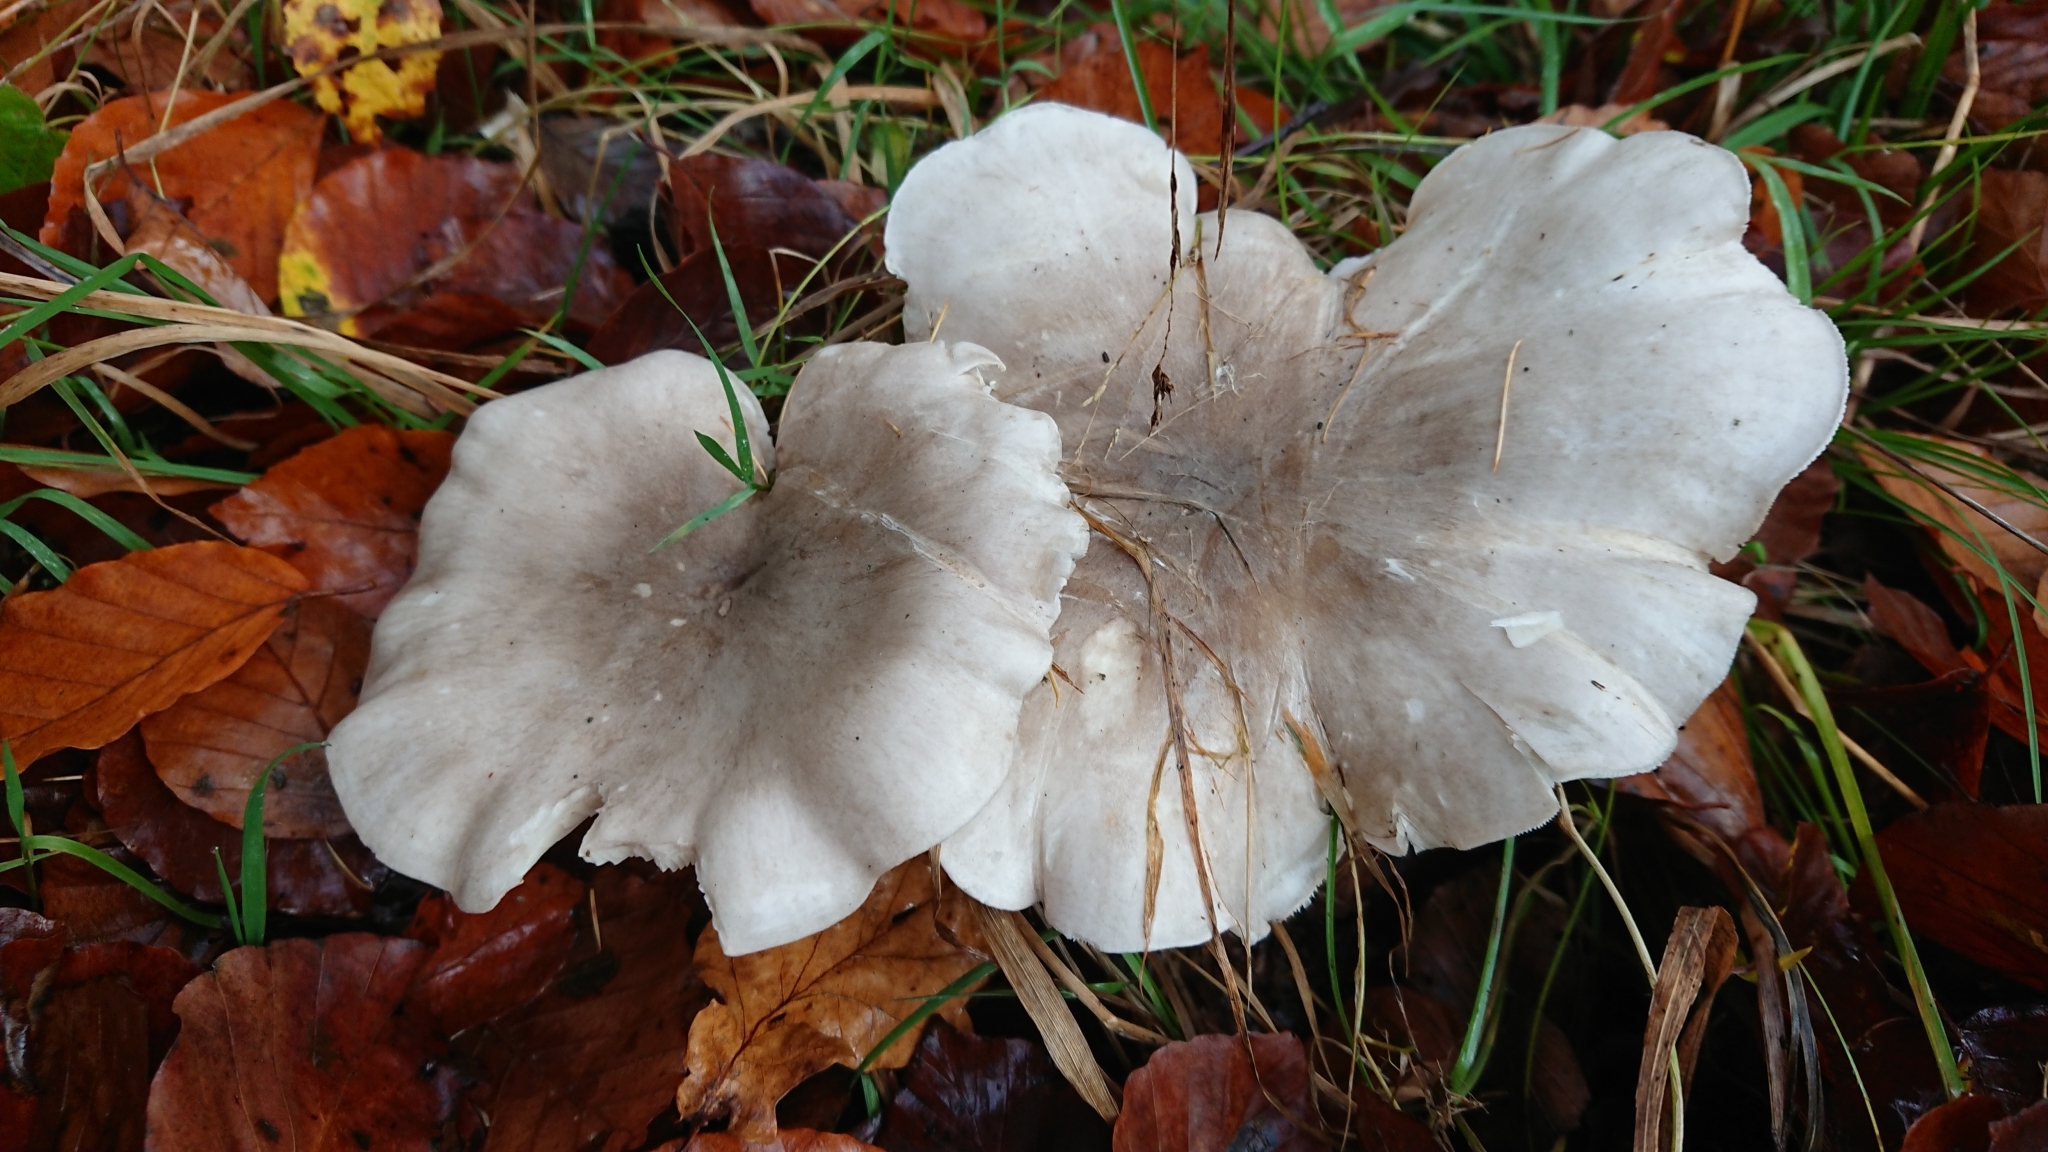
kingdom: Fungi
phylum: Basidiomycota
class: Agaricomycetes
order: Agaricales
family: Tricholomataceae
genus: Clitocybe
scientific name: Clitocybe nebularis
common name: Clouded agaric
